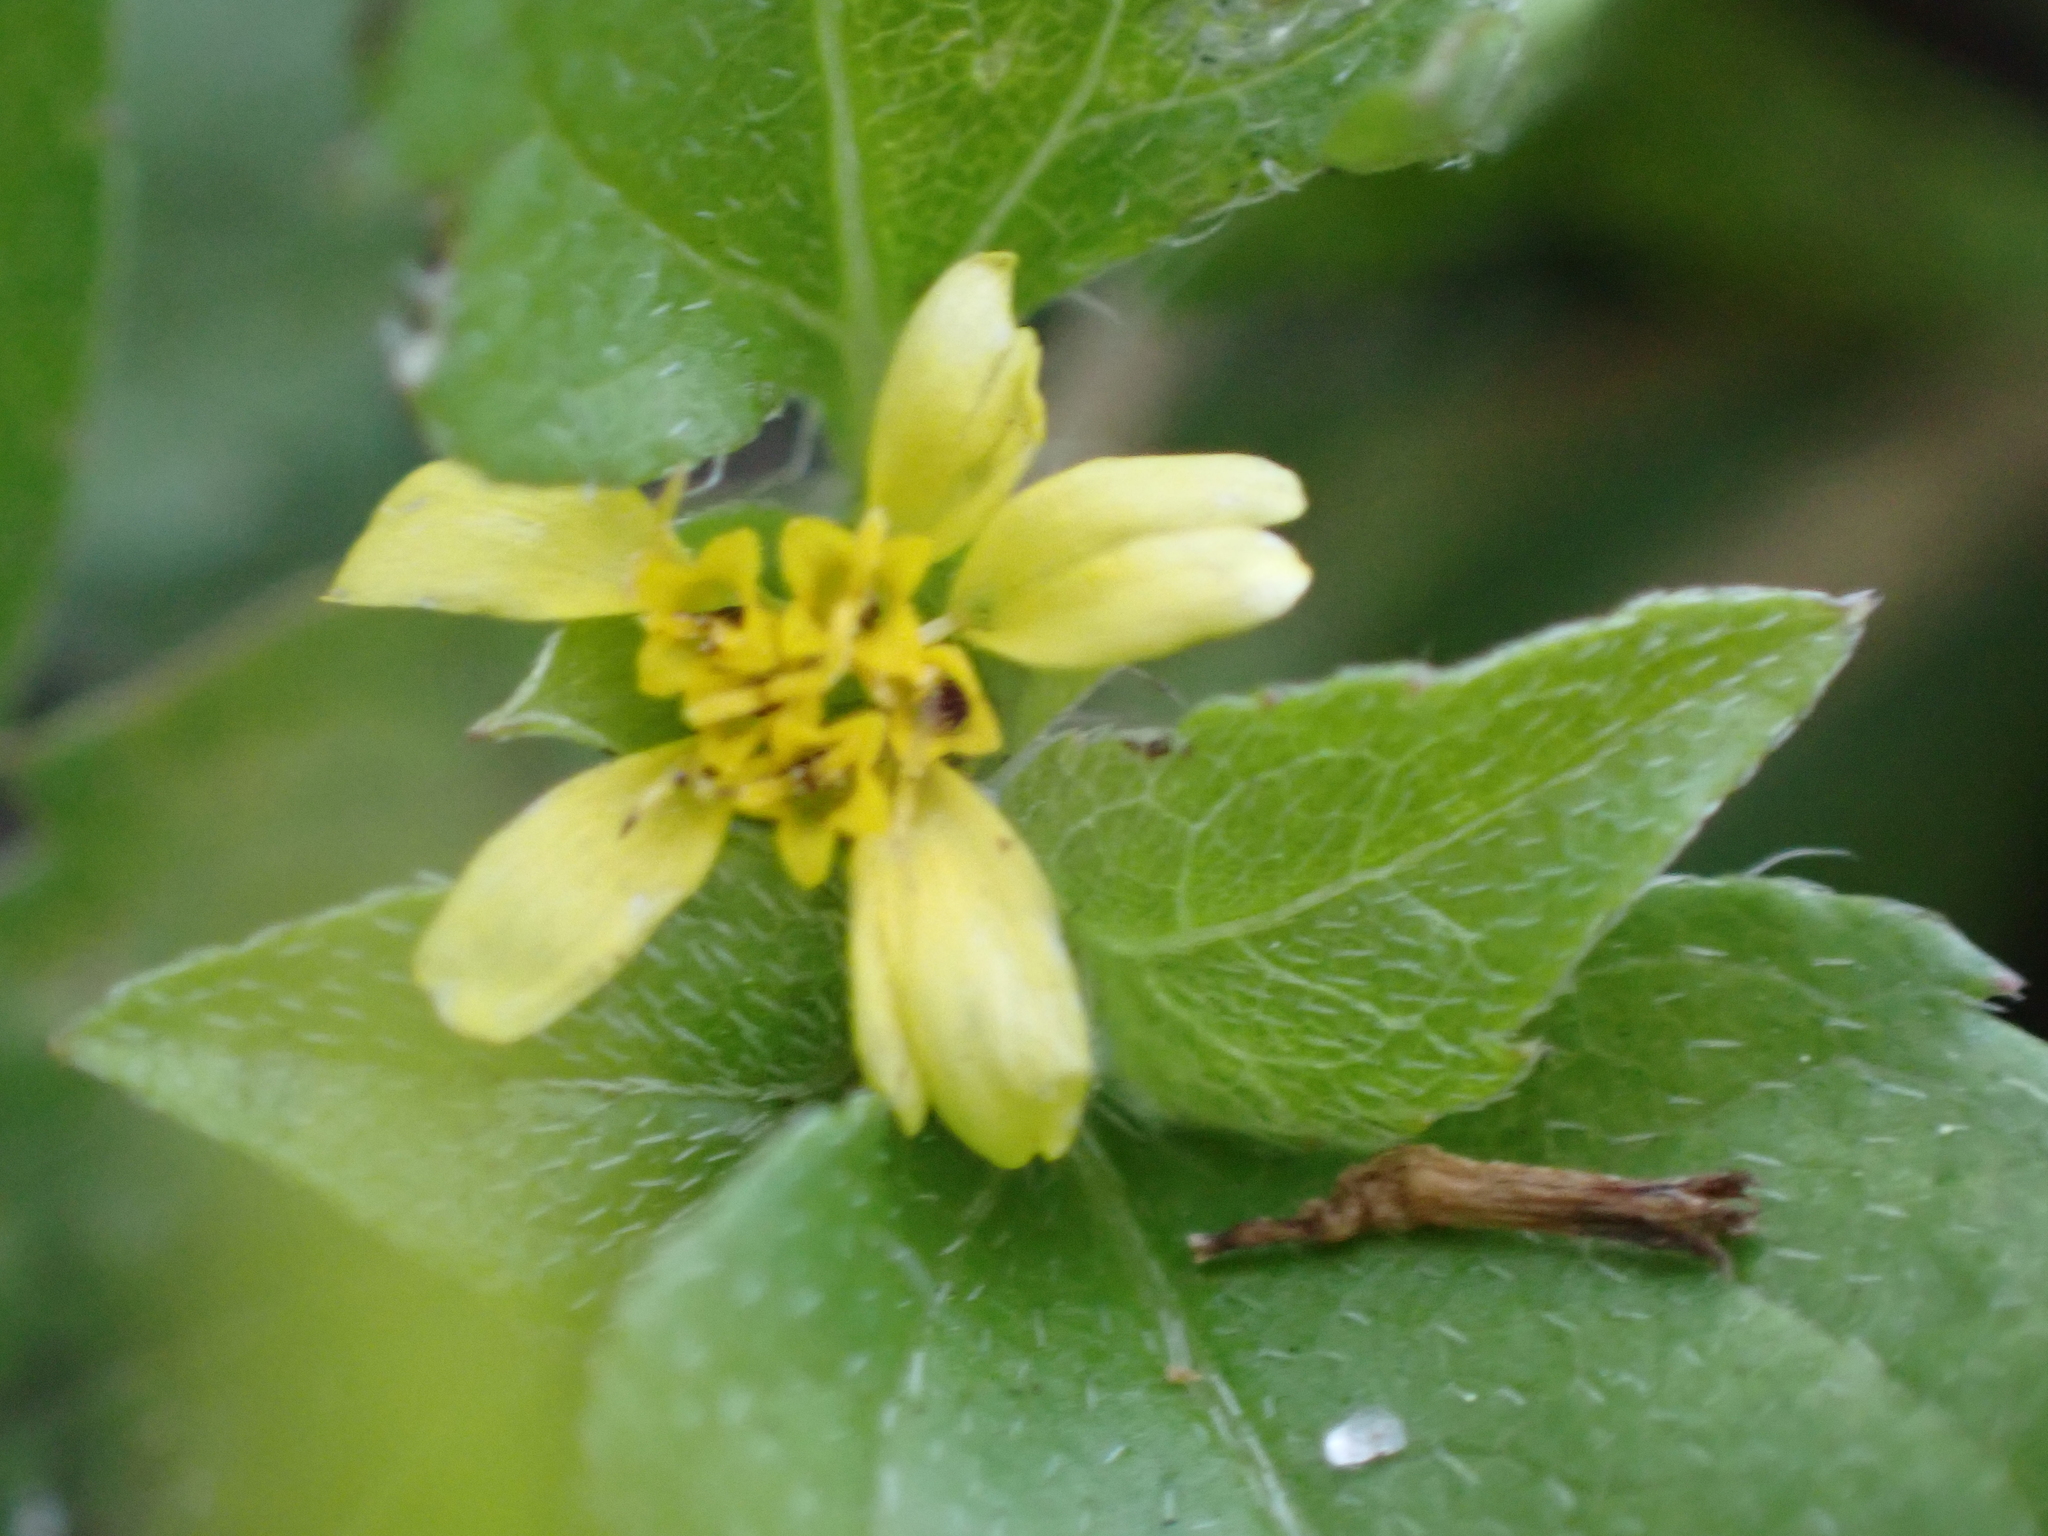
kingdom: Plantae
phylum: Tracheophyta
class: Magnoliopsida
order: Asterales
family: Asteraceae
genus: Calyptocarpus
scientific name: Calyptocarpus vialis
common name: Straggler daisy
